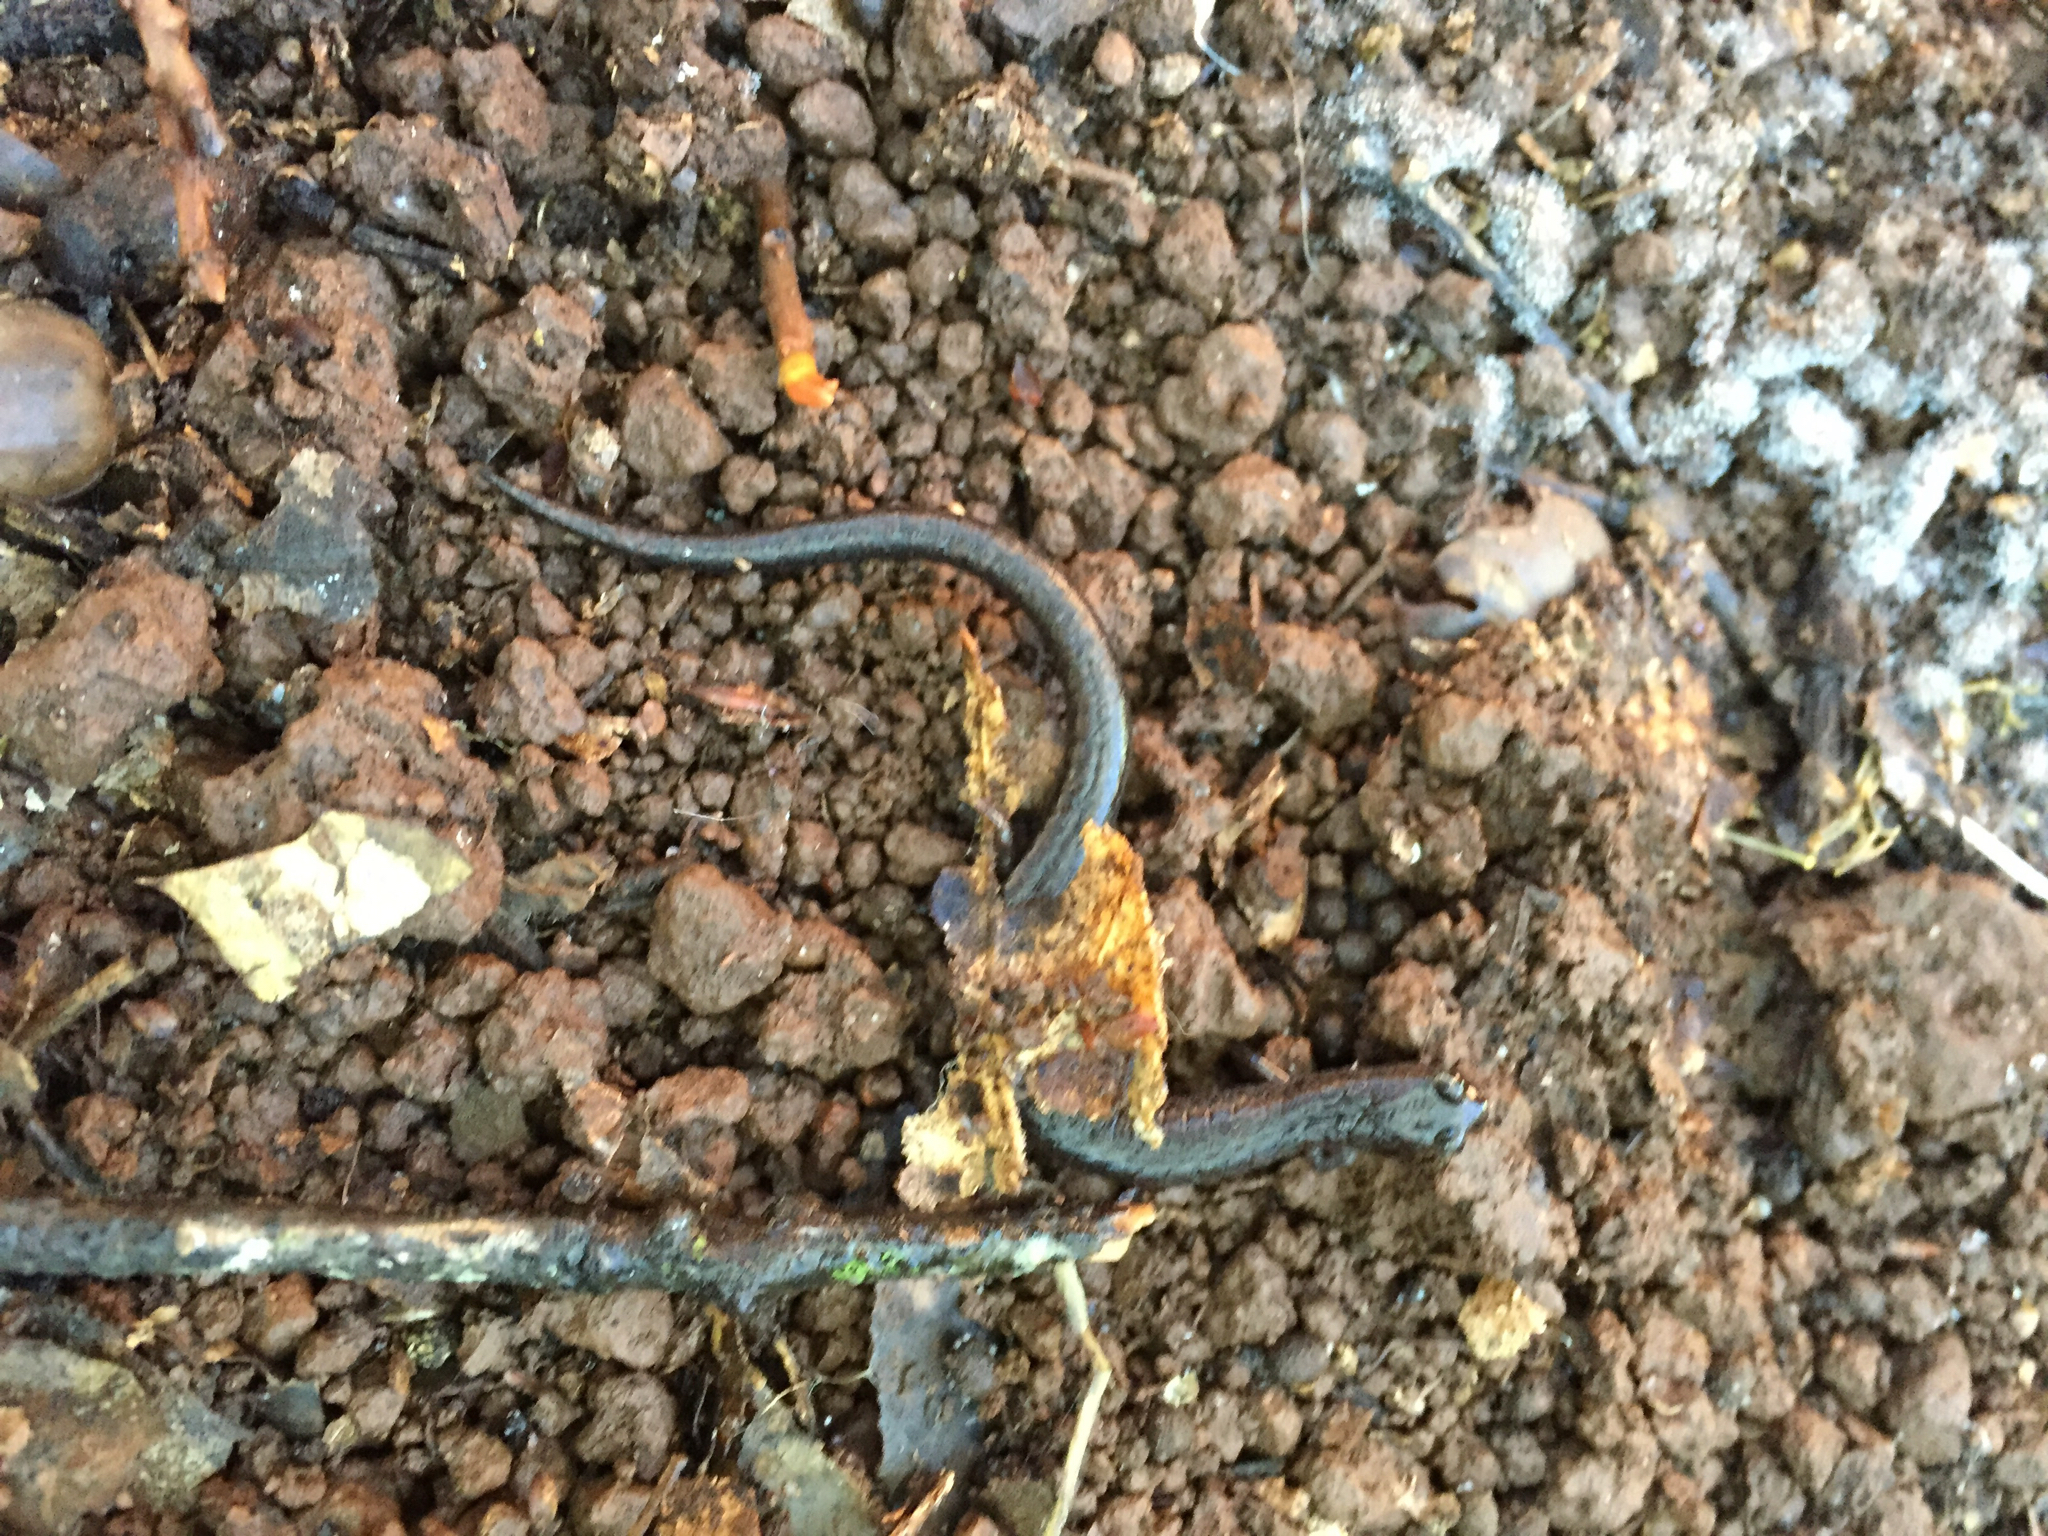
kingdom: Animalia
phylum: Chordata
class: Amphibia
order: Caudata
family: Plethodontidae
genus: Batrachoseps
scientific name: Batrachoseps attenuatus
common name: California slender salamander
